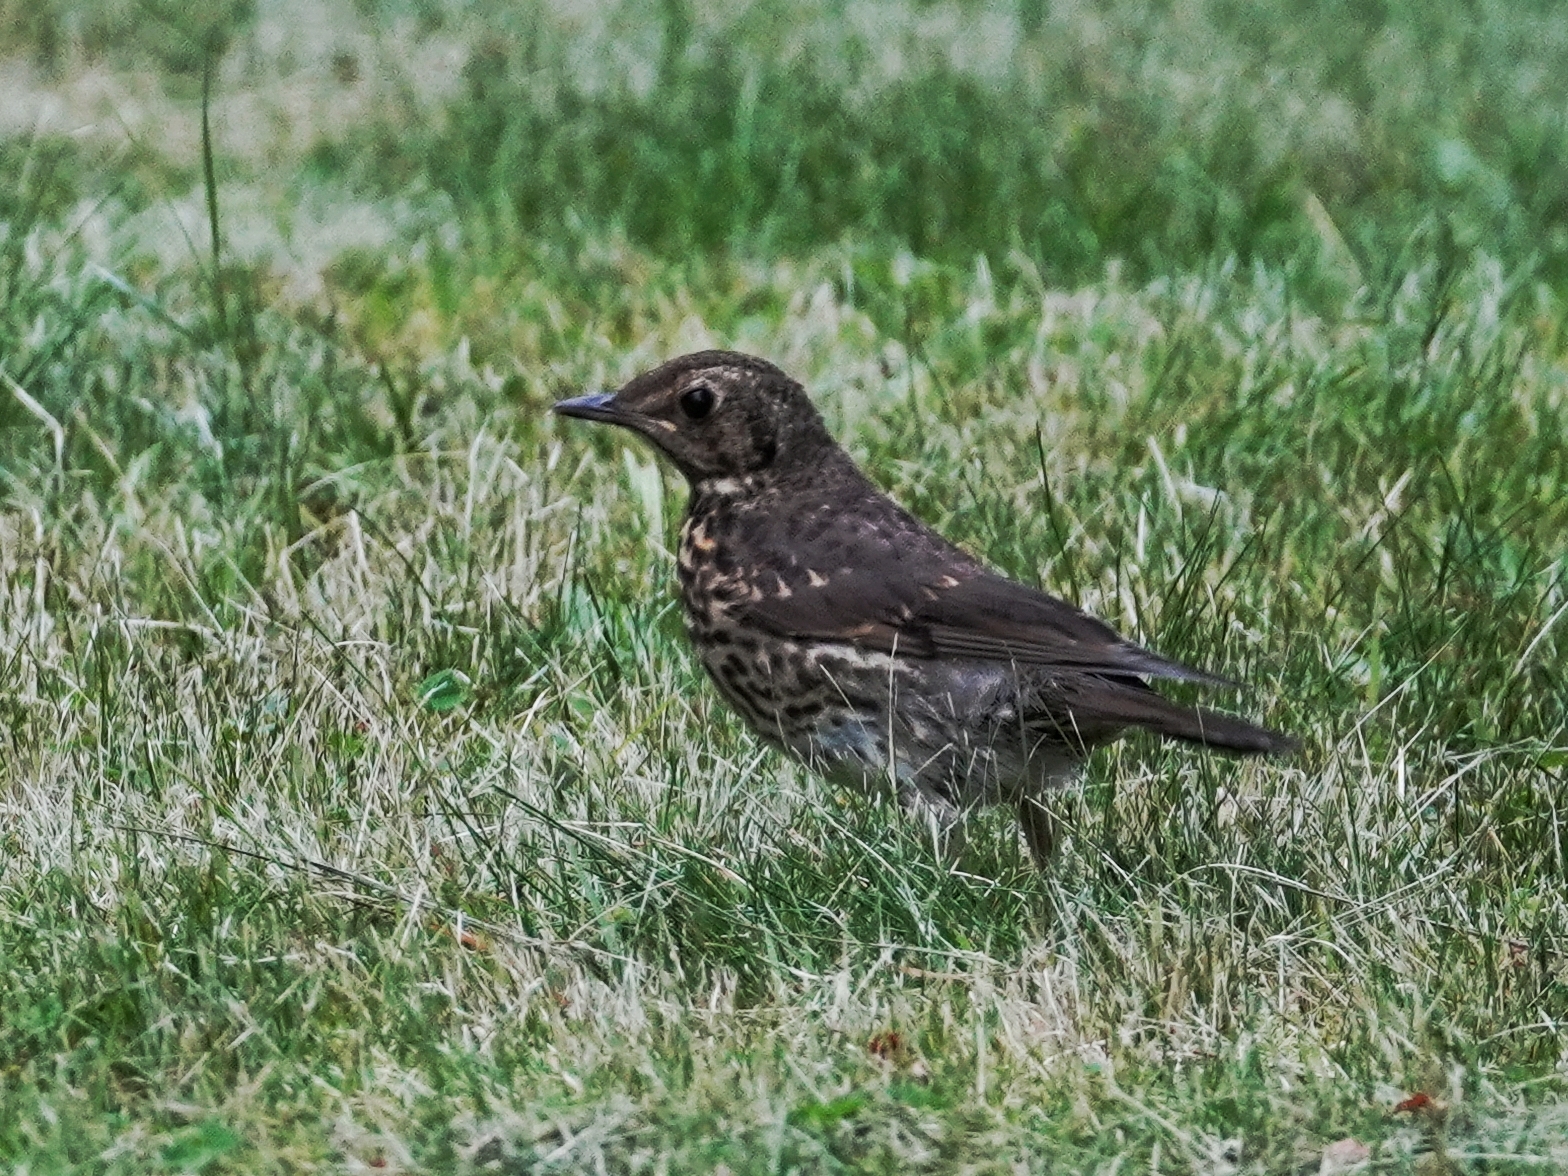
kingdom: Animalia
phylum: Chordata
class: Aves
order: Passeriformes
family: Turdidae
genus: Turdus
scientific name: Turdus philomelos
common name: Song thrush
